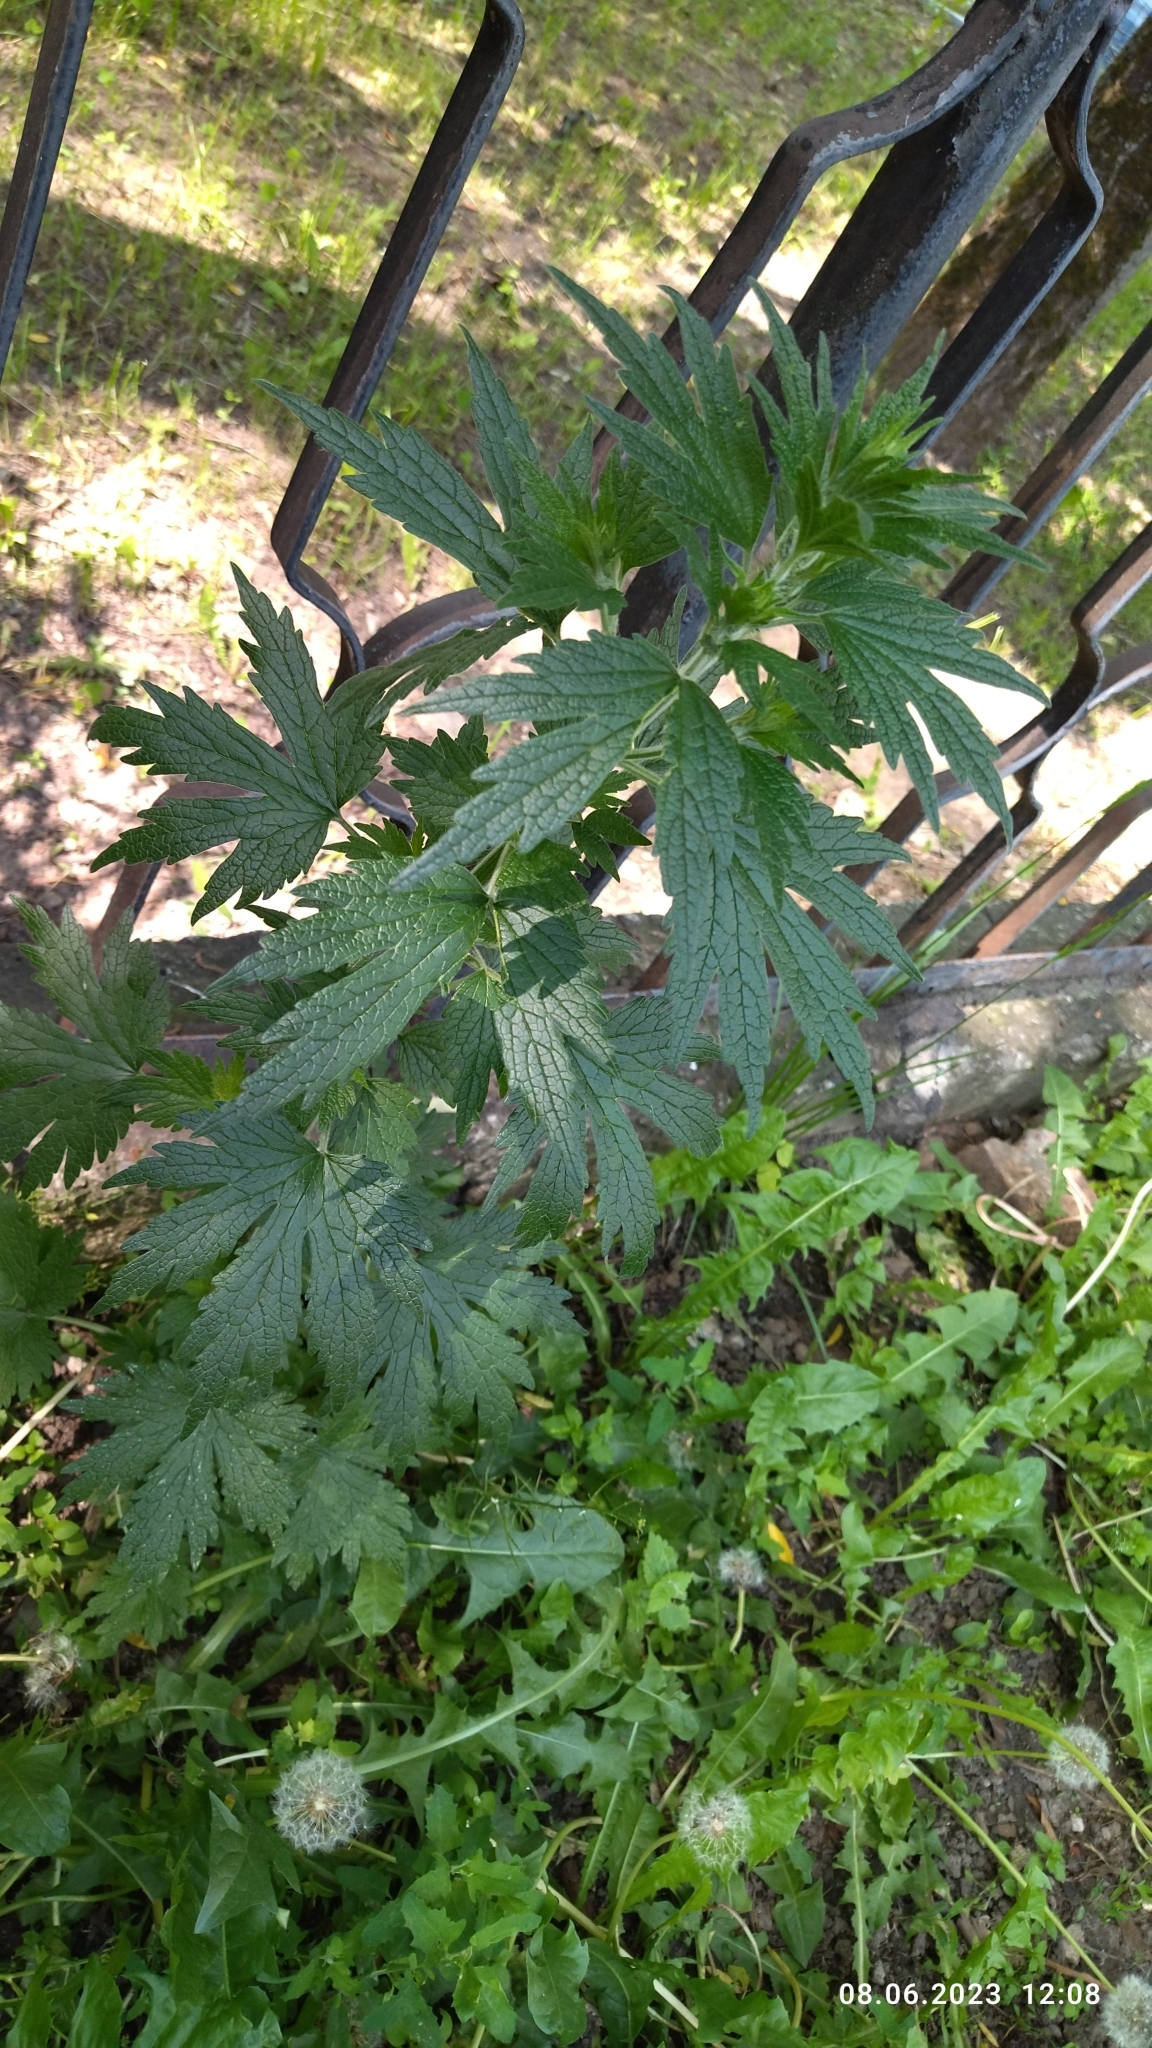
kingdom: Plantae
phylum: Tracheophyta
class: Magnoliopsida
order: Lamiales
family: Lamiaceae
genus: Leonurus
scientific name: Leonurus quinquelobatus
